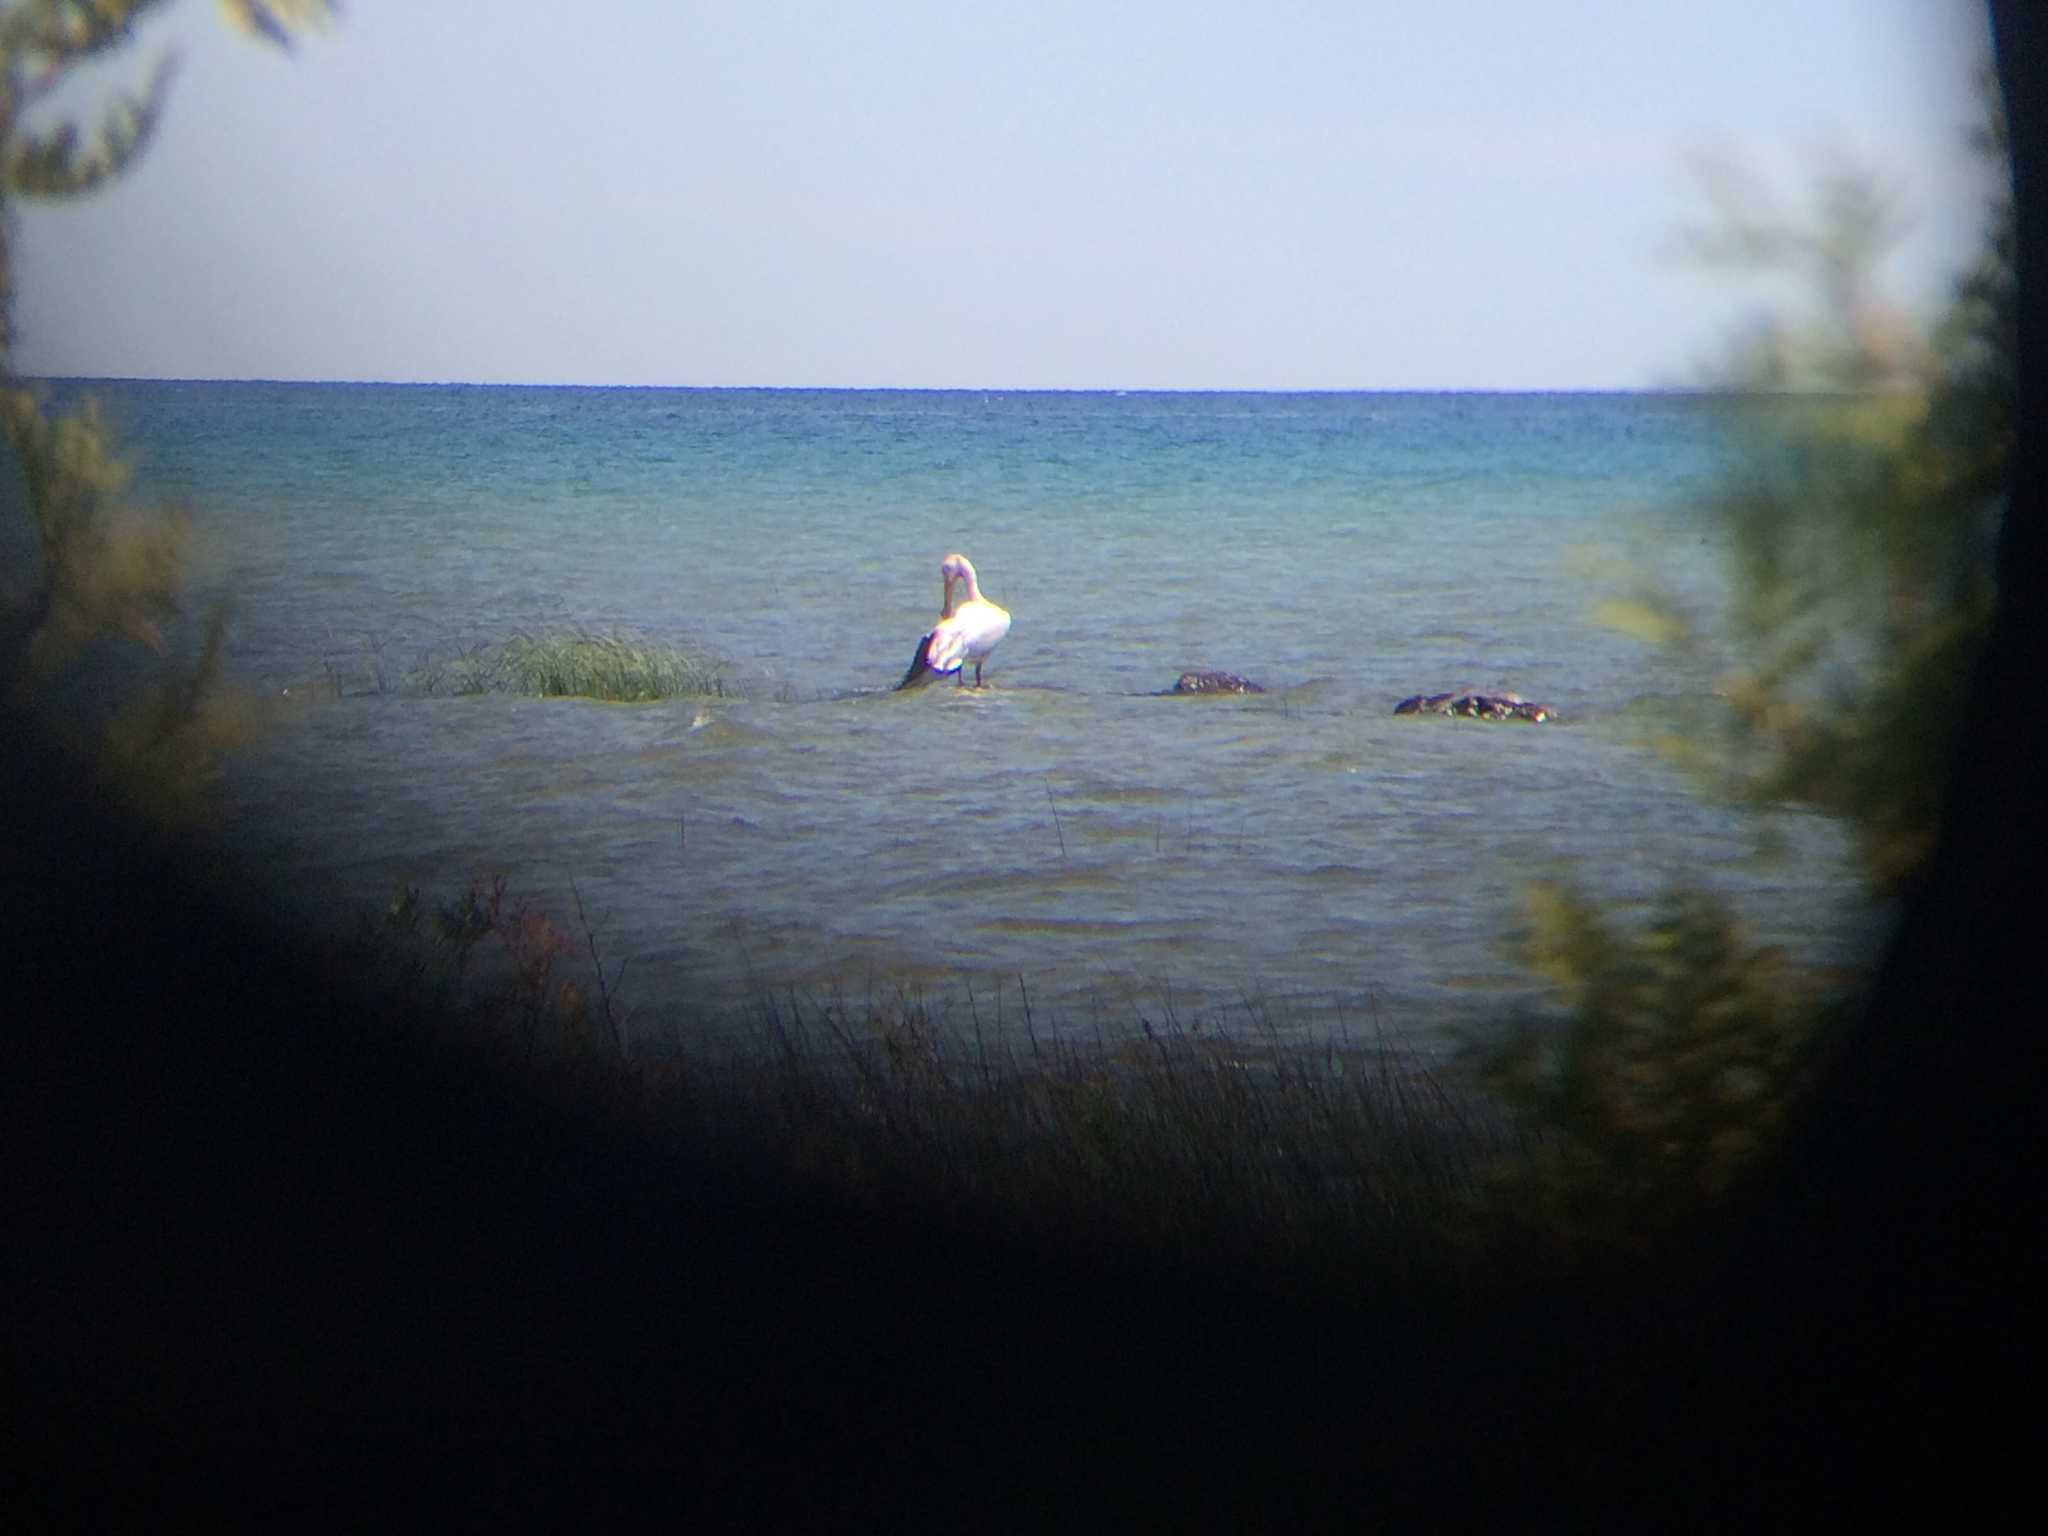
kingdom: Animalia
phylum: Chordata
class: Aves
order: Pelecaniformes
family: Pelecanidae
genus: Pelecanus
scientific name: Pelecanus erythrorhynchos
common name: American white pelican
